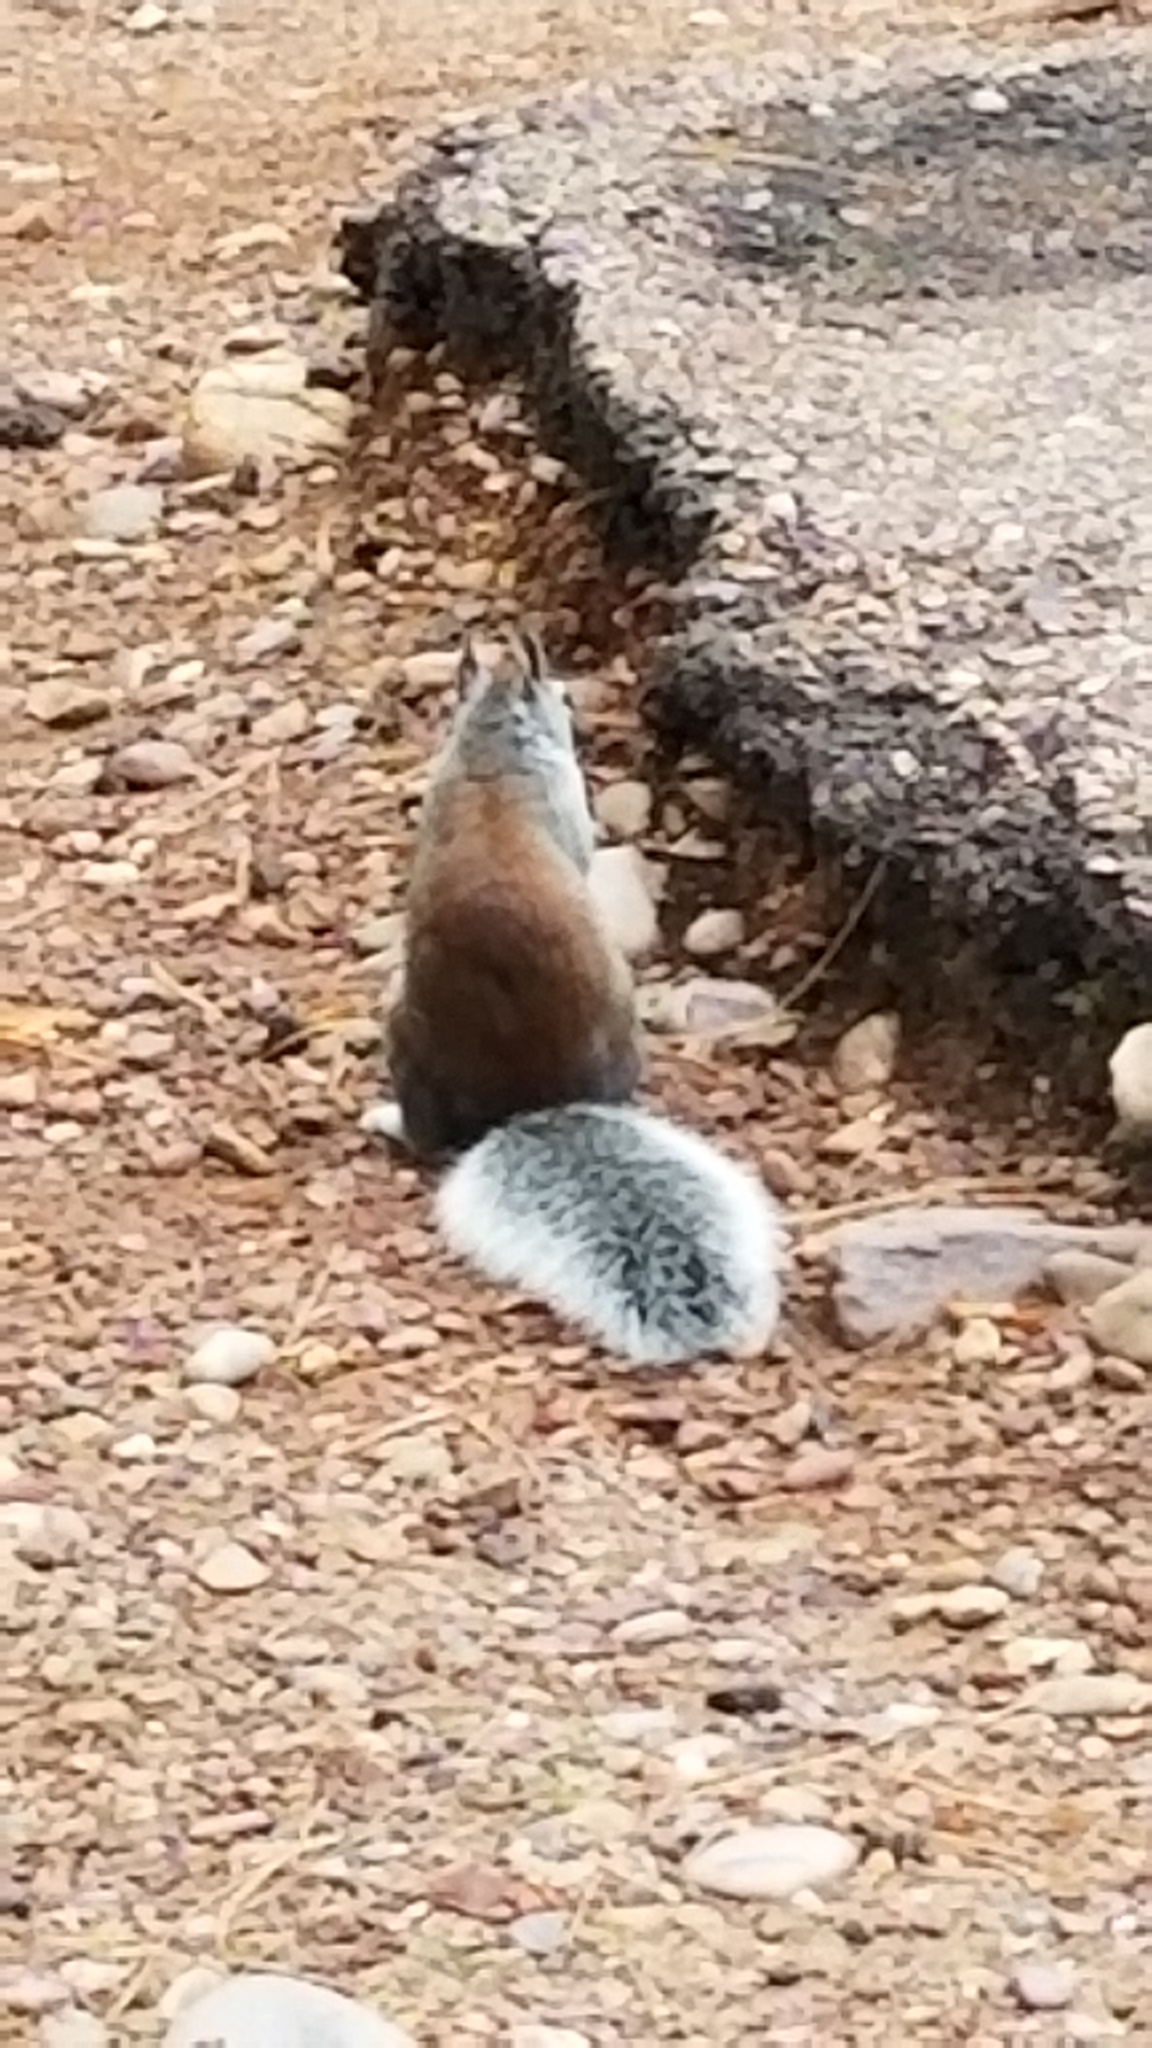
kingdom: Animalia
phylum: Chordata
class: Mammalia
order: Rodentia
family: Sciuridae
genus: Sciurus
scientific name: Sciurus aberti
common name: Abert's squirrel
